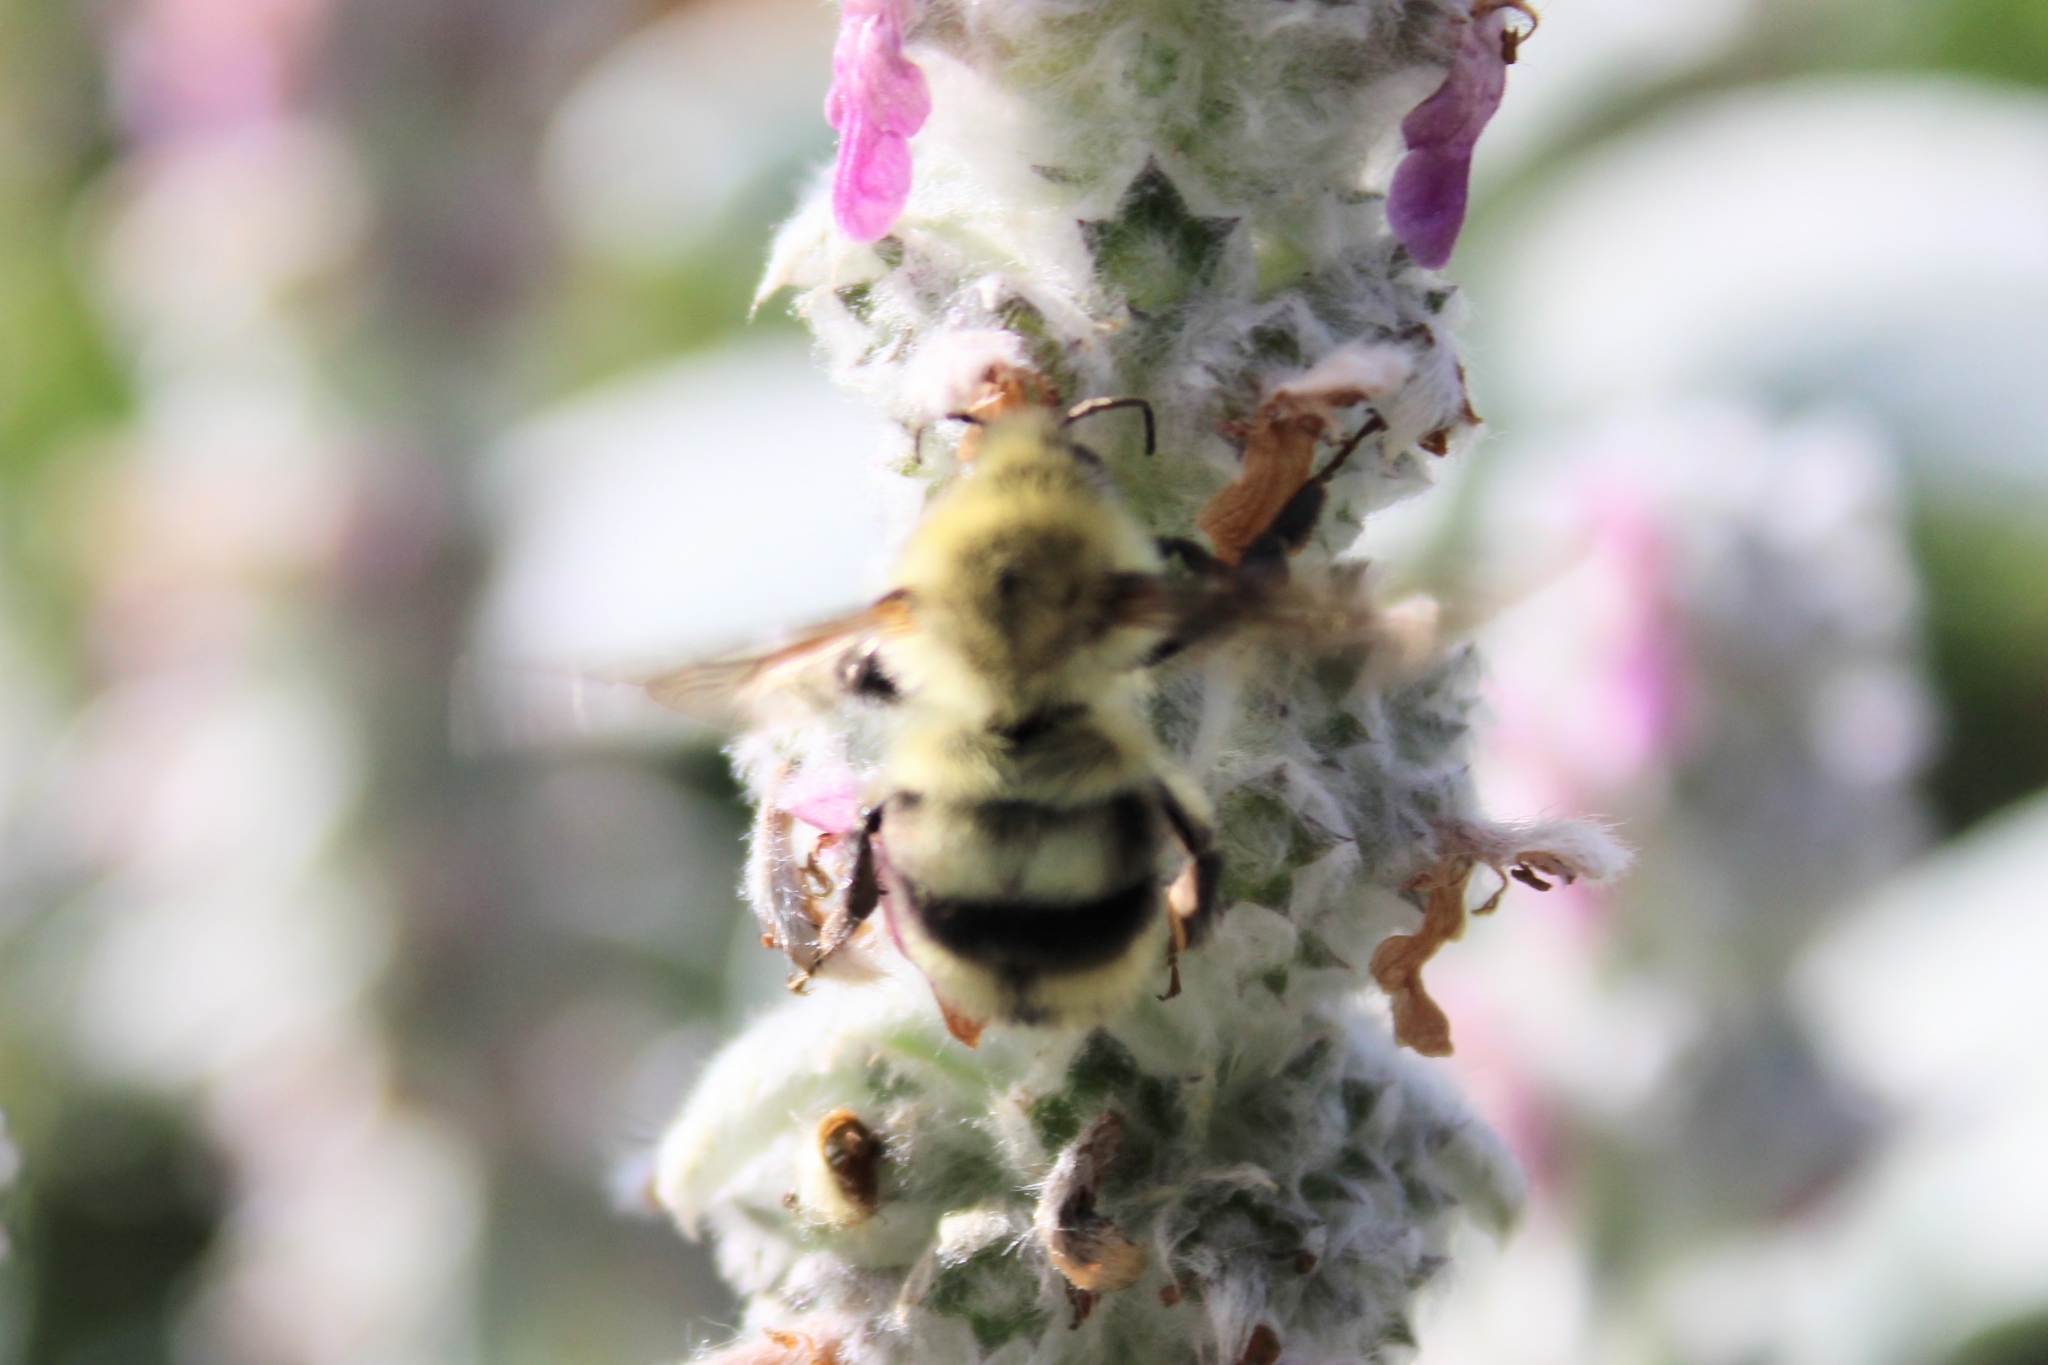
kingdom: Animalia
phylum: Arthropoda
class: Insecta
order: Hymenoptera
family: Apidae
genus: Bombus
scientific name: Bombus bimaculatus
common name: Two-spotted bumble bee
